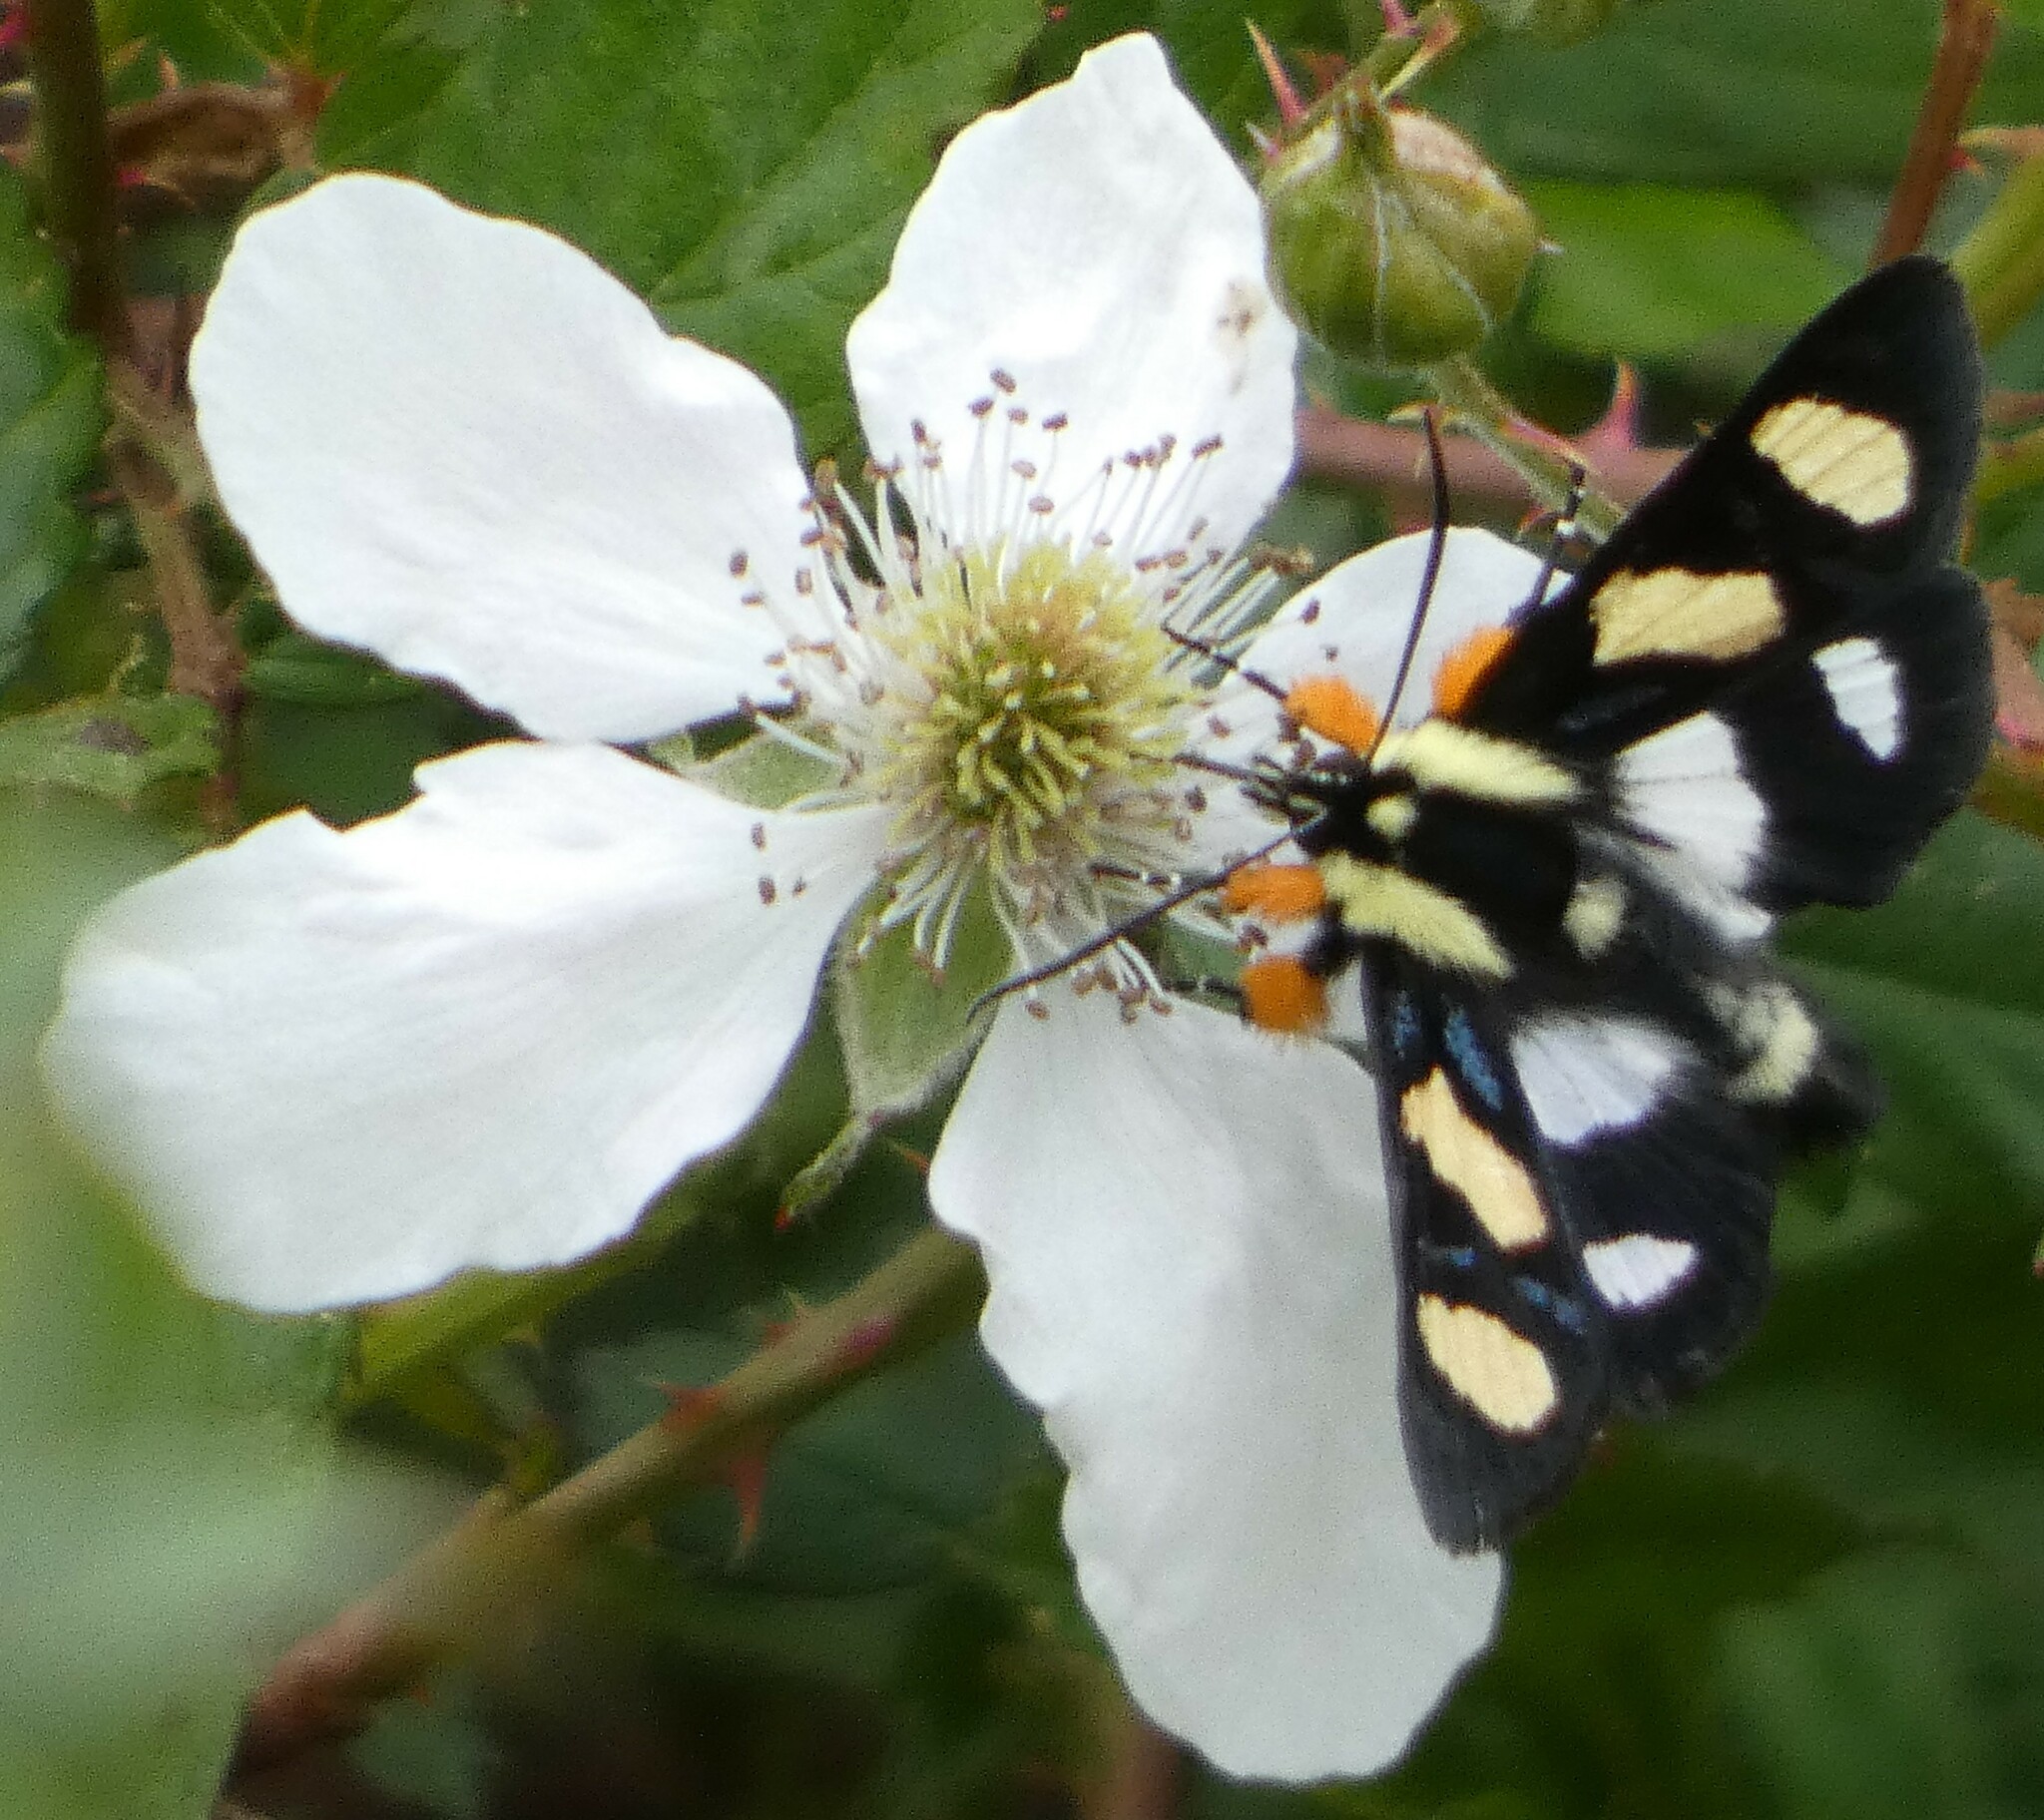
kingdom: Animalia
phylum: Arthropoda
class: Insecta
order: Lepidoptera
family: Noctuidae
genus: Alypia
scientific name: Alypia wittfeldii
